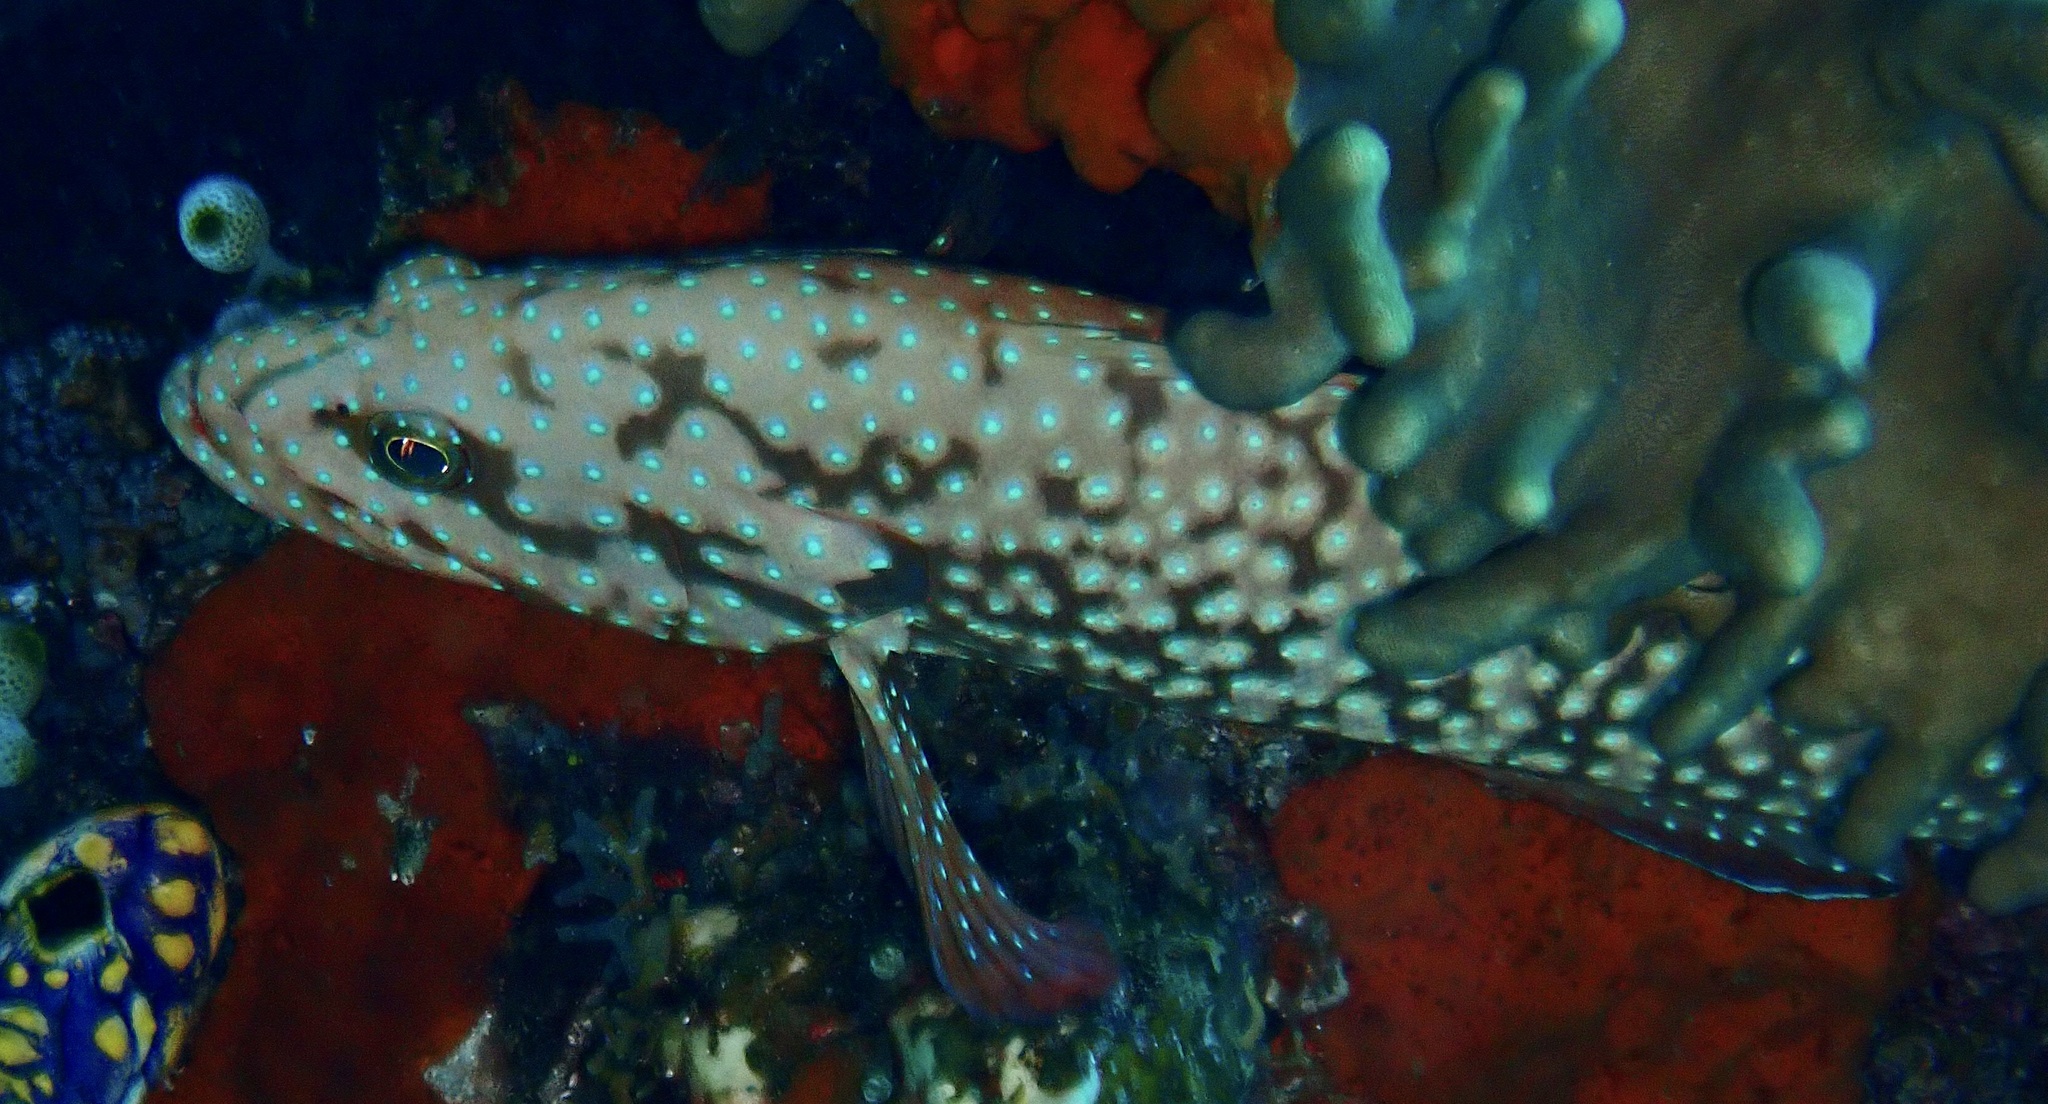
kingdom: Animalia
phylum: Chordata
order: Perciformes
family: Serranidae
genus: Cephalopholis
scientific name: Cephalopholis cyanostigma
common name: Bluespotted hind
